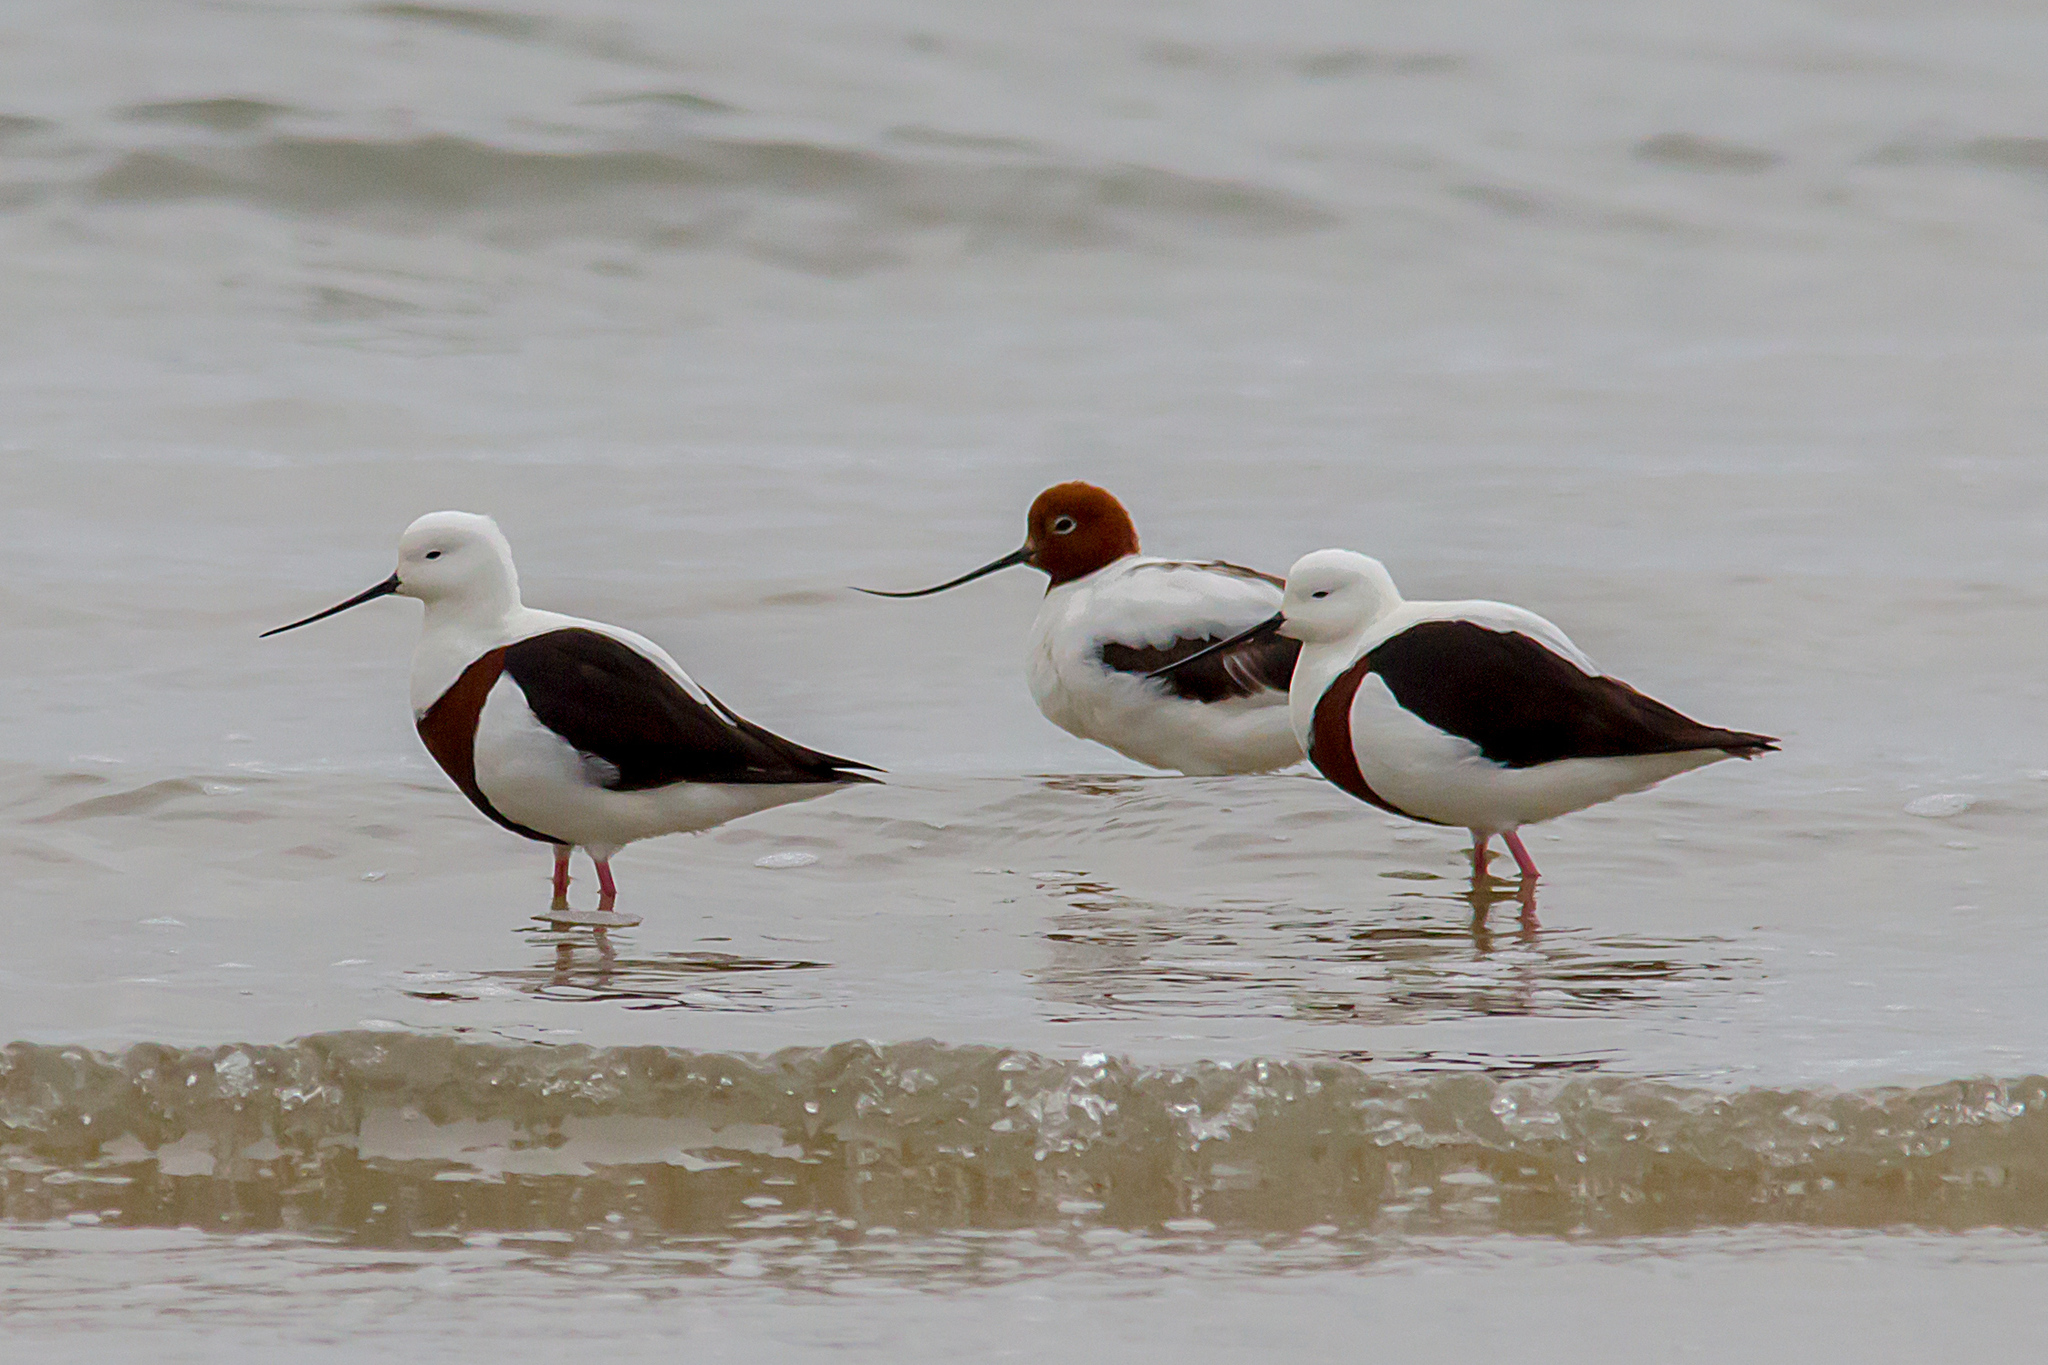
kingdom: Animalia
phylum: Chordata
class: Aves
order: Charadriiformes
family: Recurvirostridae
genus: Cladorhynchus
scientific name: Cladorhynchus leucocephalus
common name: Banded stilt
